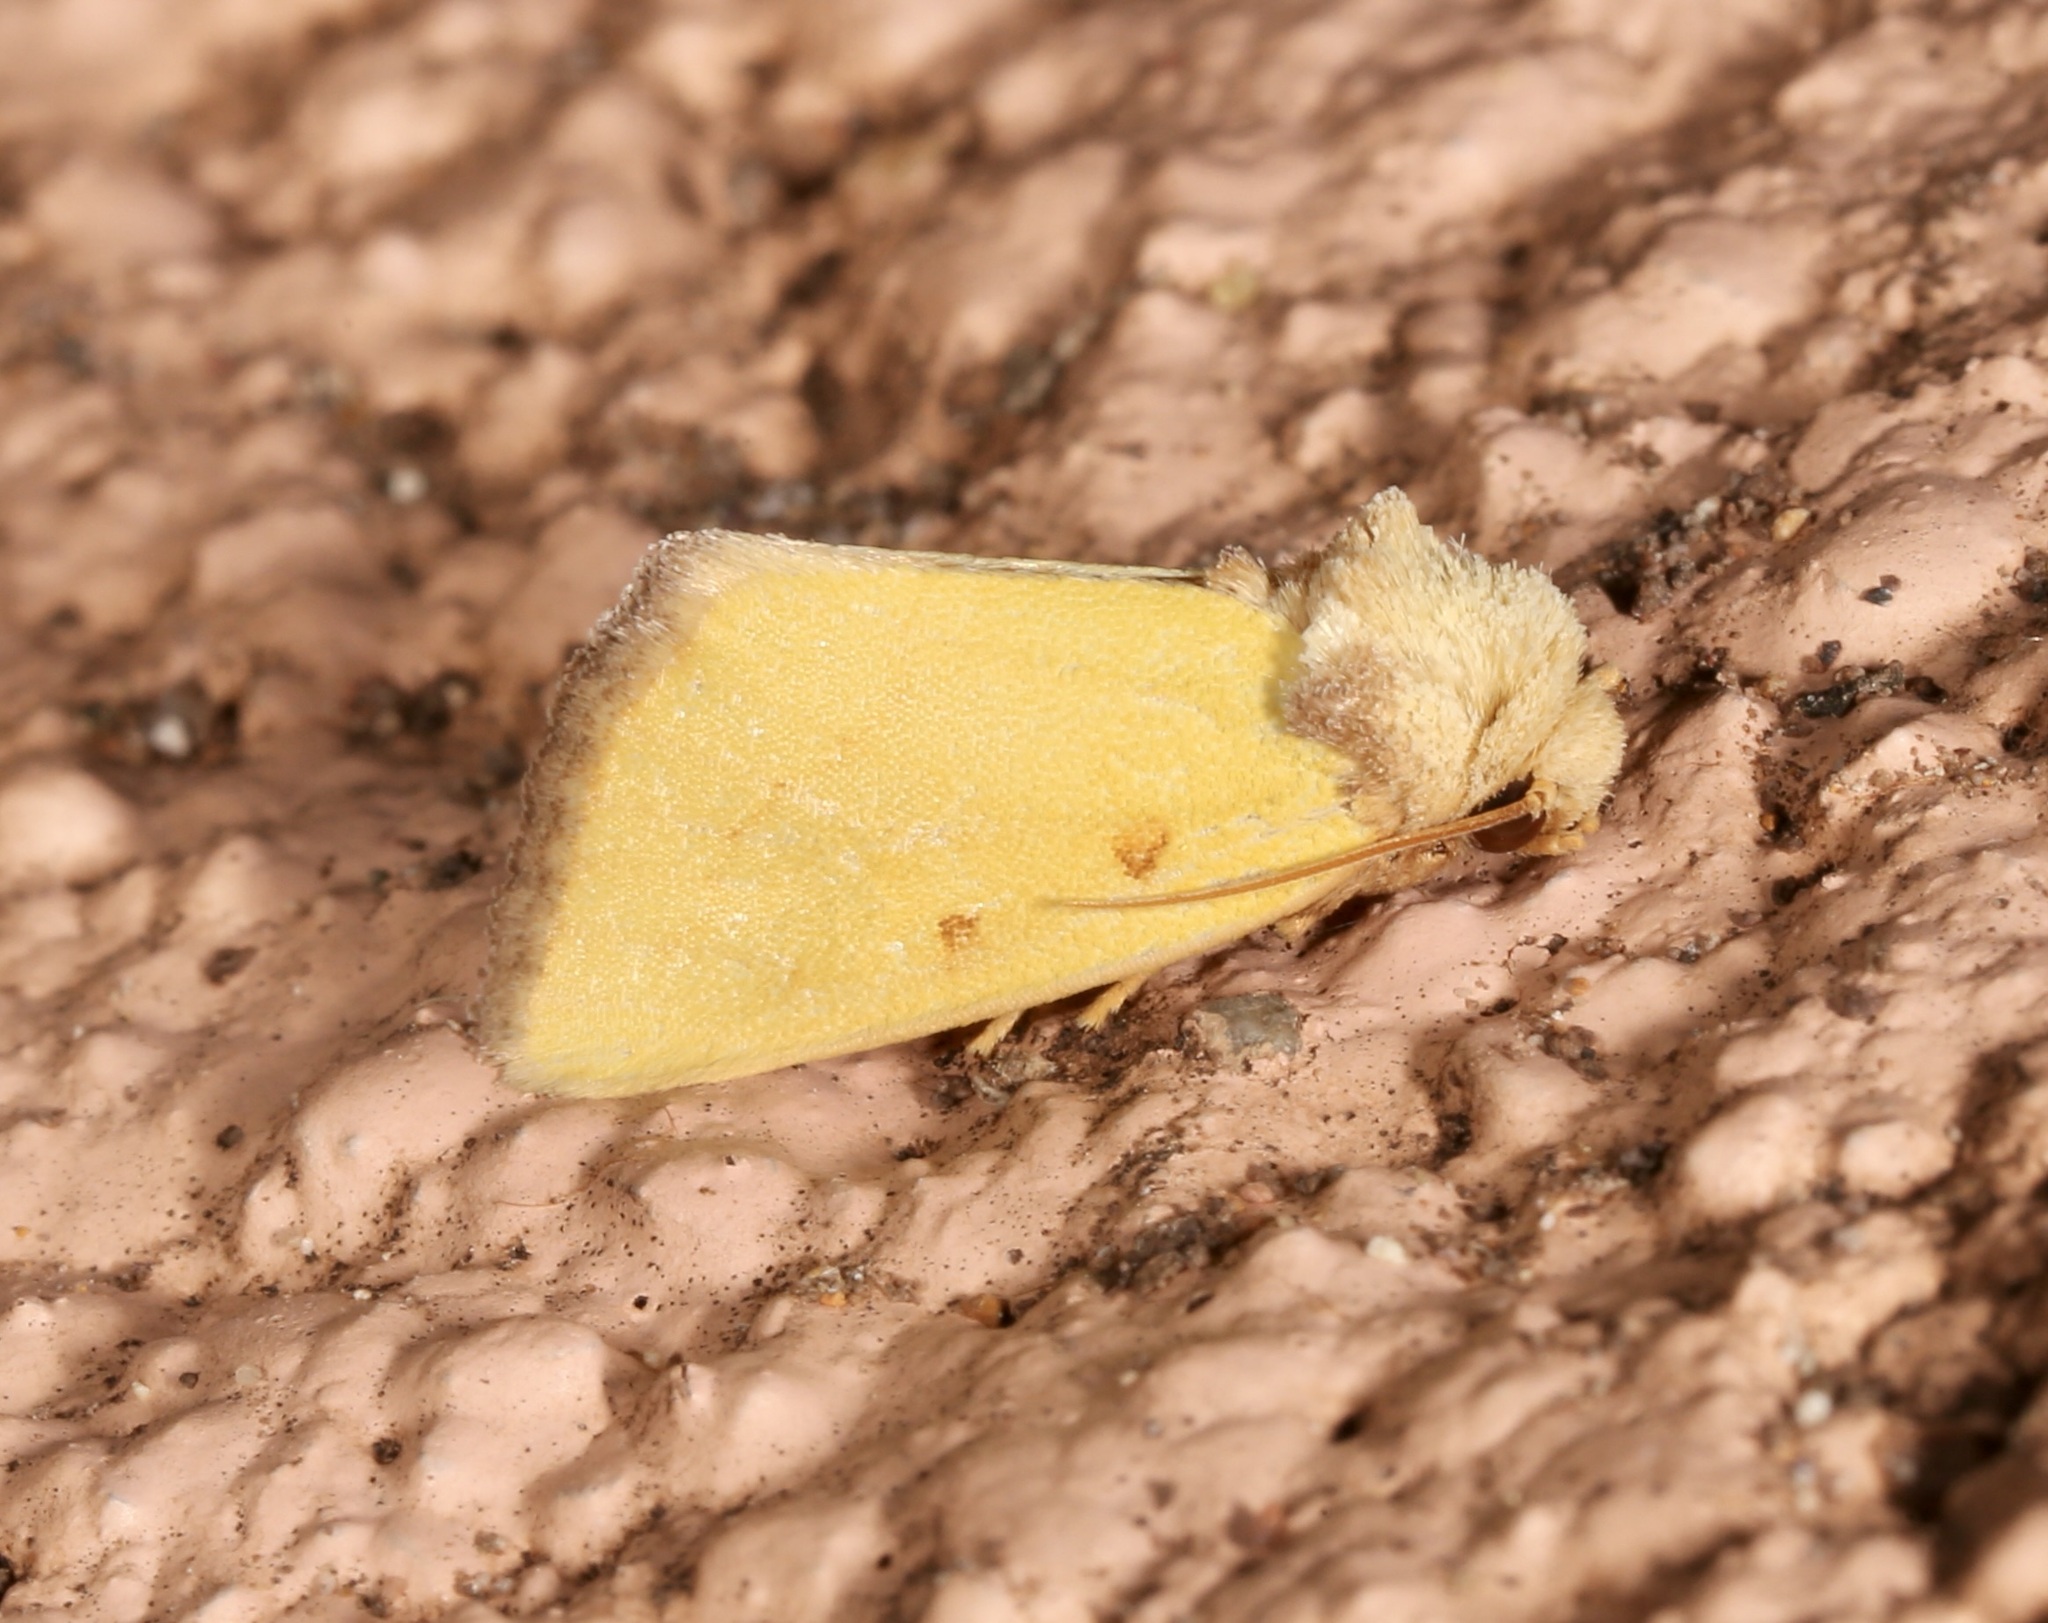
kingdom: Animalia
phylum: Arthropoda
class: Insecta
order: Lepidoptera
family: Noctuidae
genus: Nocloa
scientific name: Nocloa aliaga
